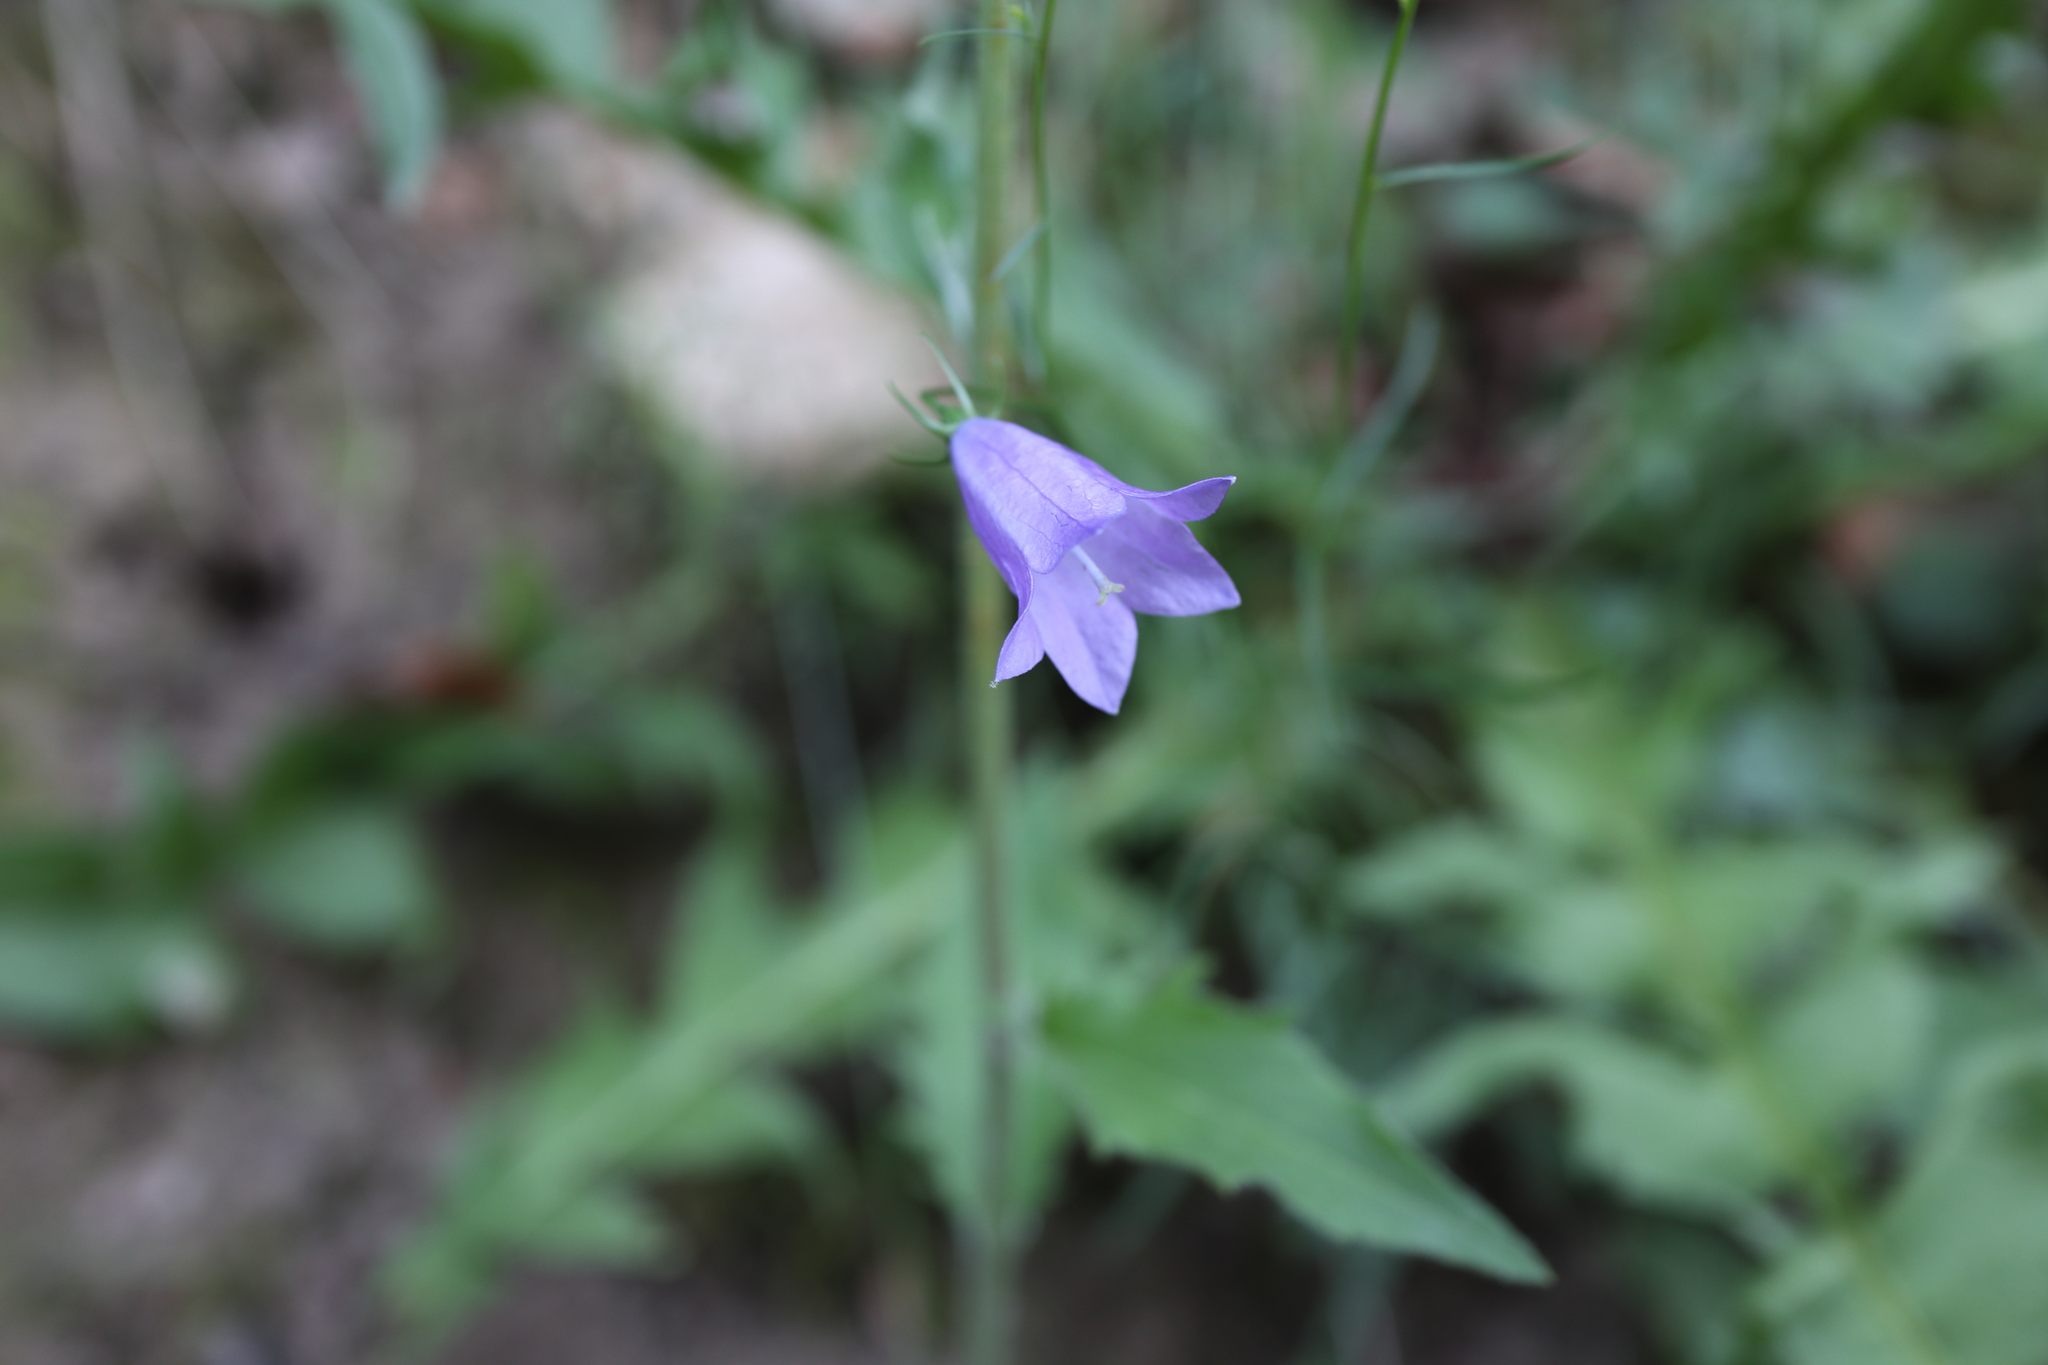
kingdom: Plantae
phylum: Tracheophyta
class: Magnoliopsida
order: Asterales
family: Campanulaceae
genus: Campanula
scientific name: Campanula rotundifolia
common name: Harebell
